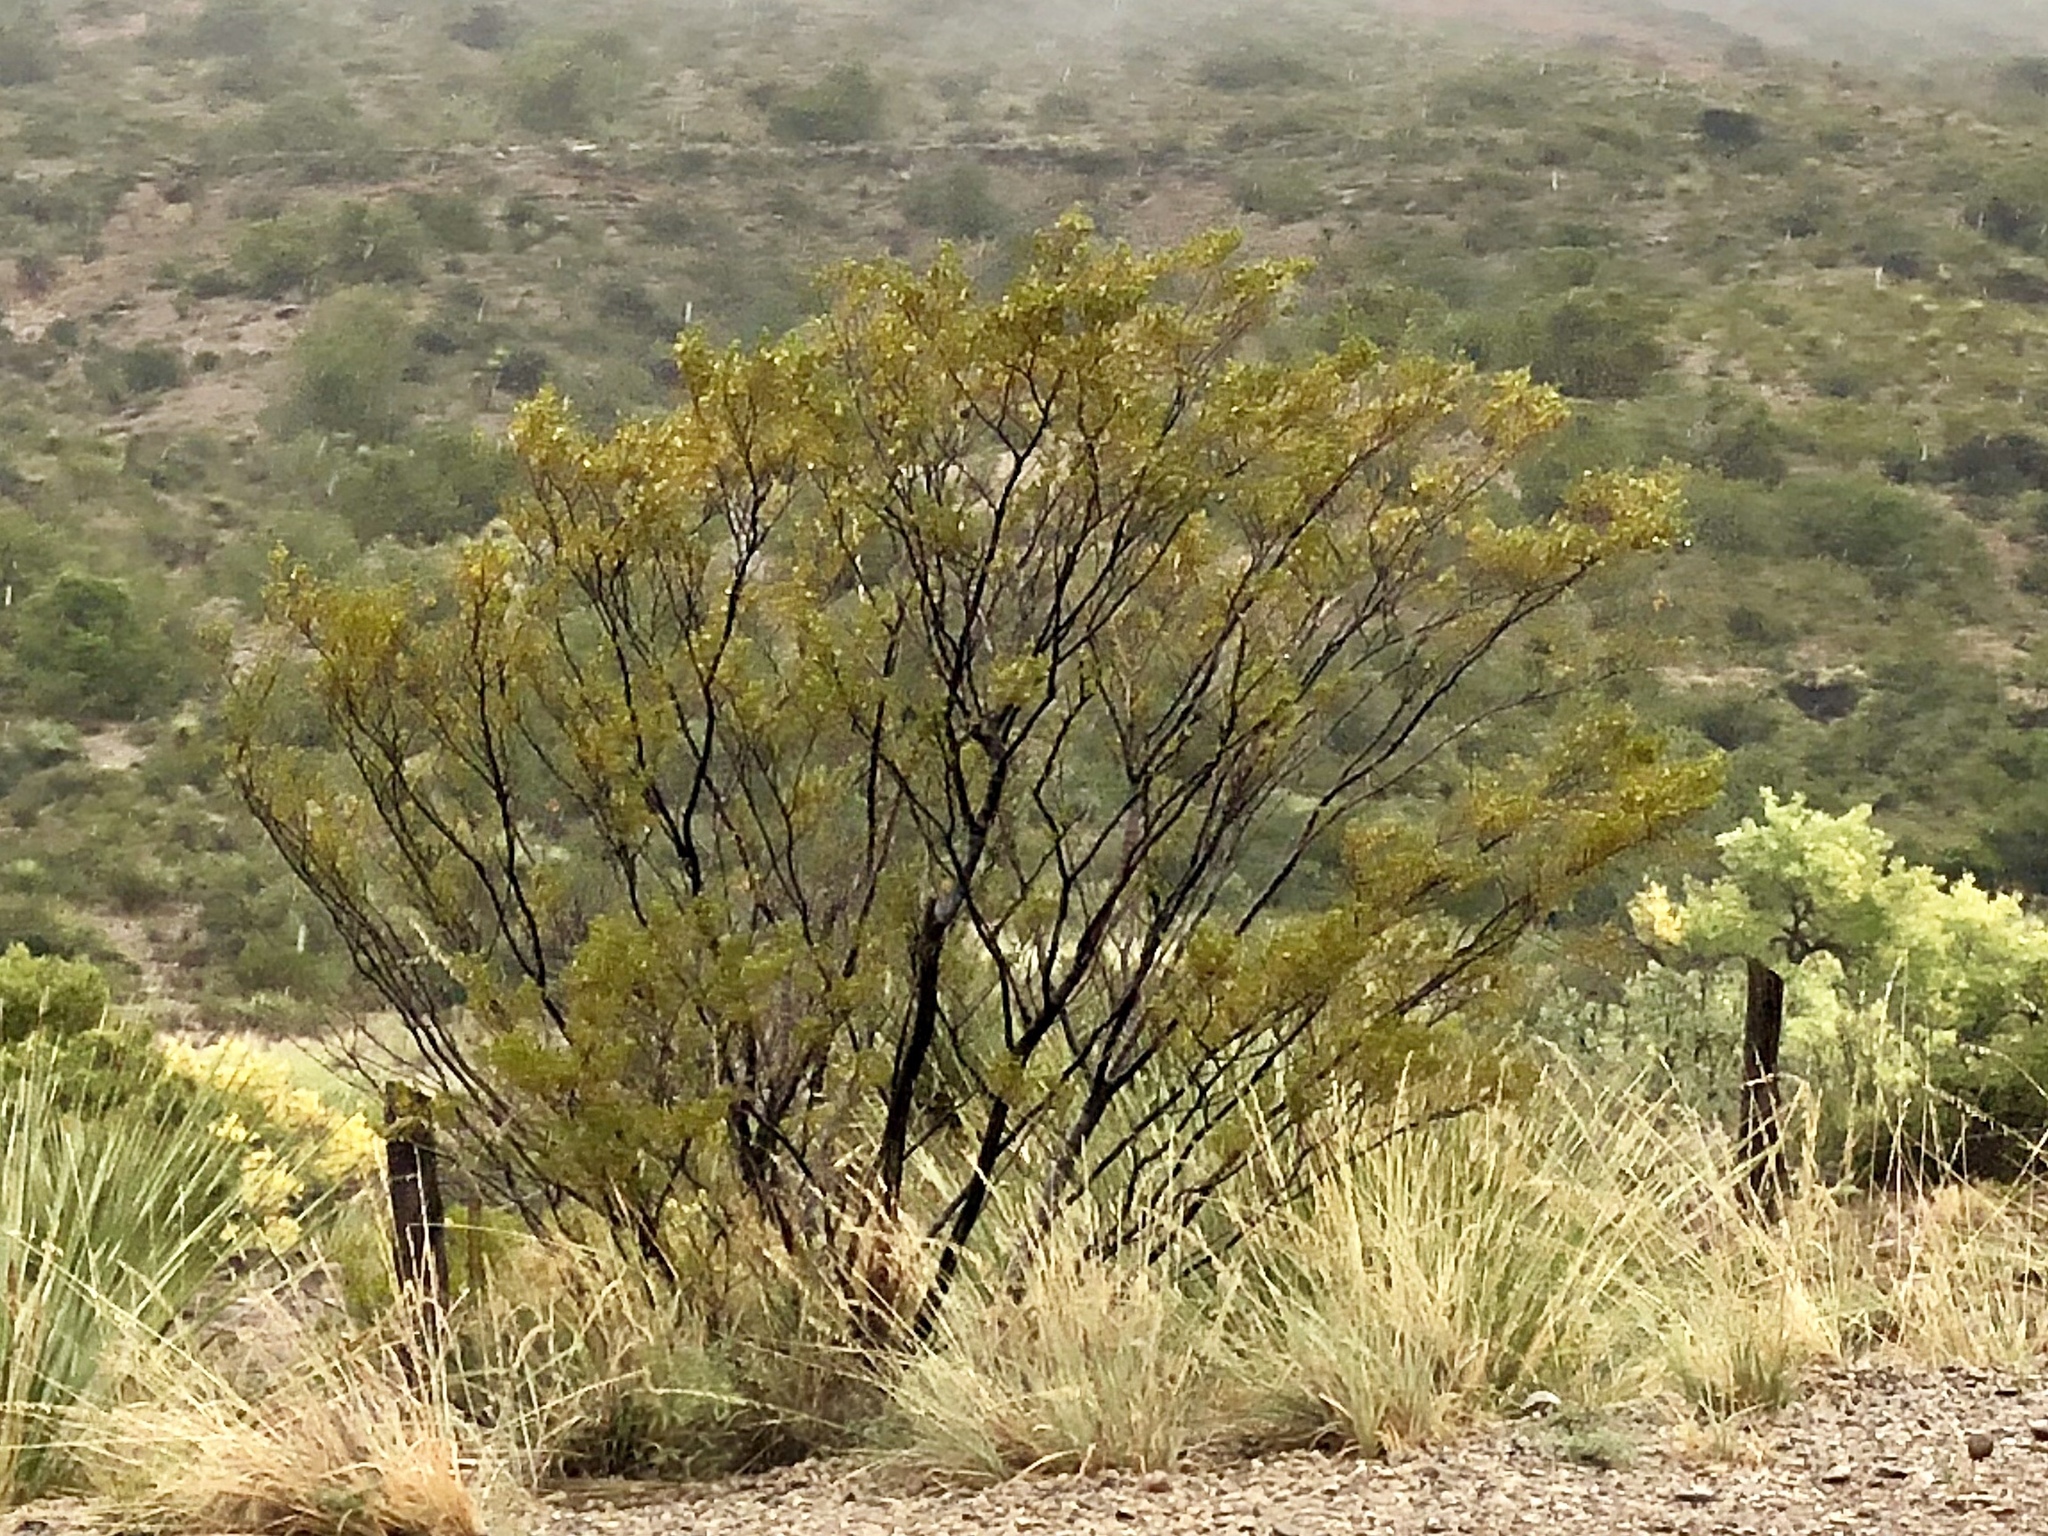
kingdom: Plantae
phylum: Tracheophyta
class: Magnoliopsida
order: Zygophyllales
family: Zygophyllaceae
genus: Larrea
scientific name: Larrea tridentata
